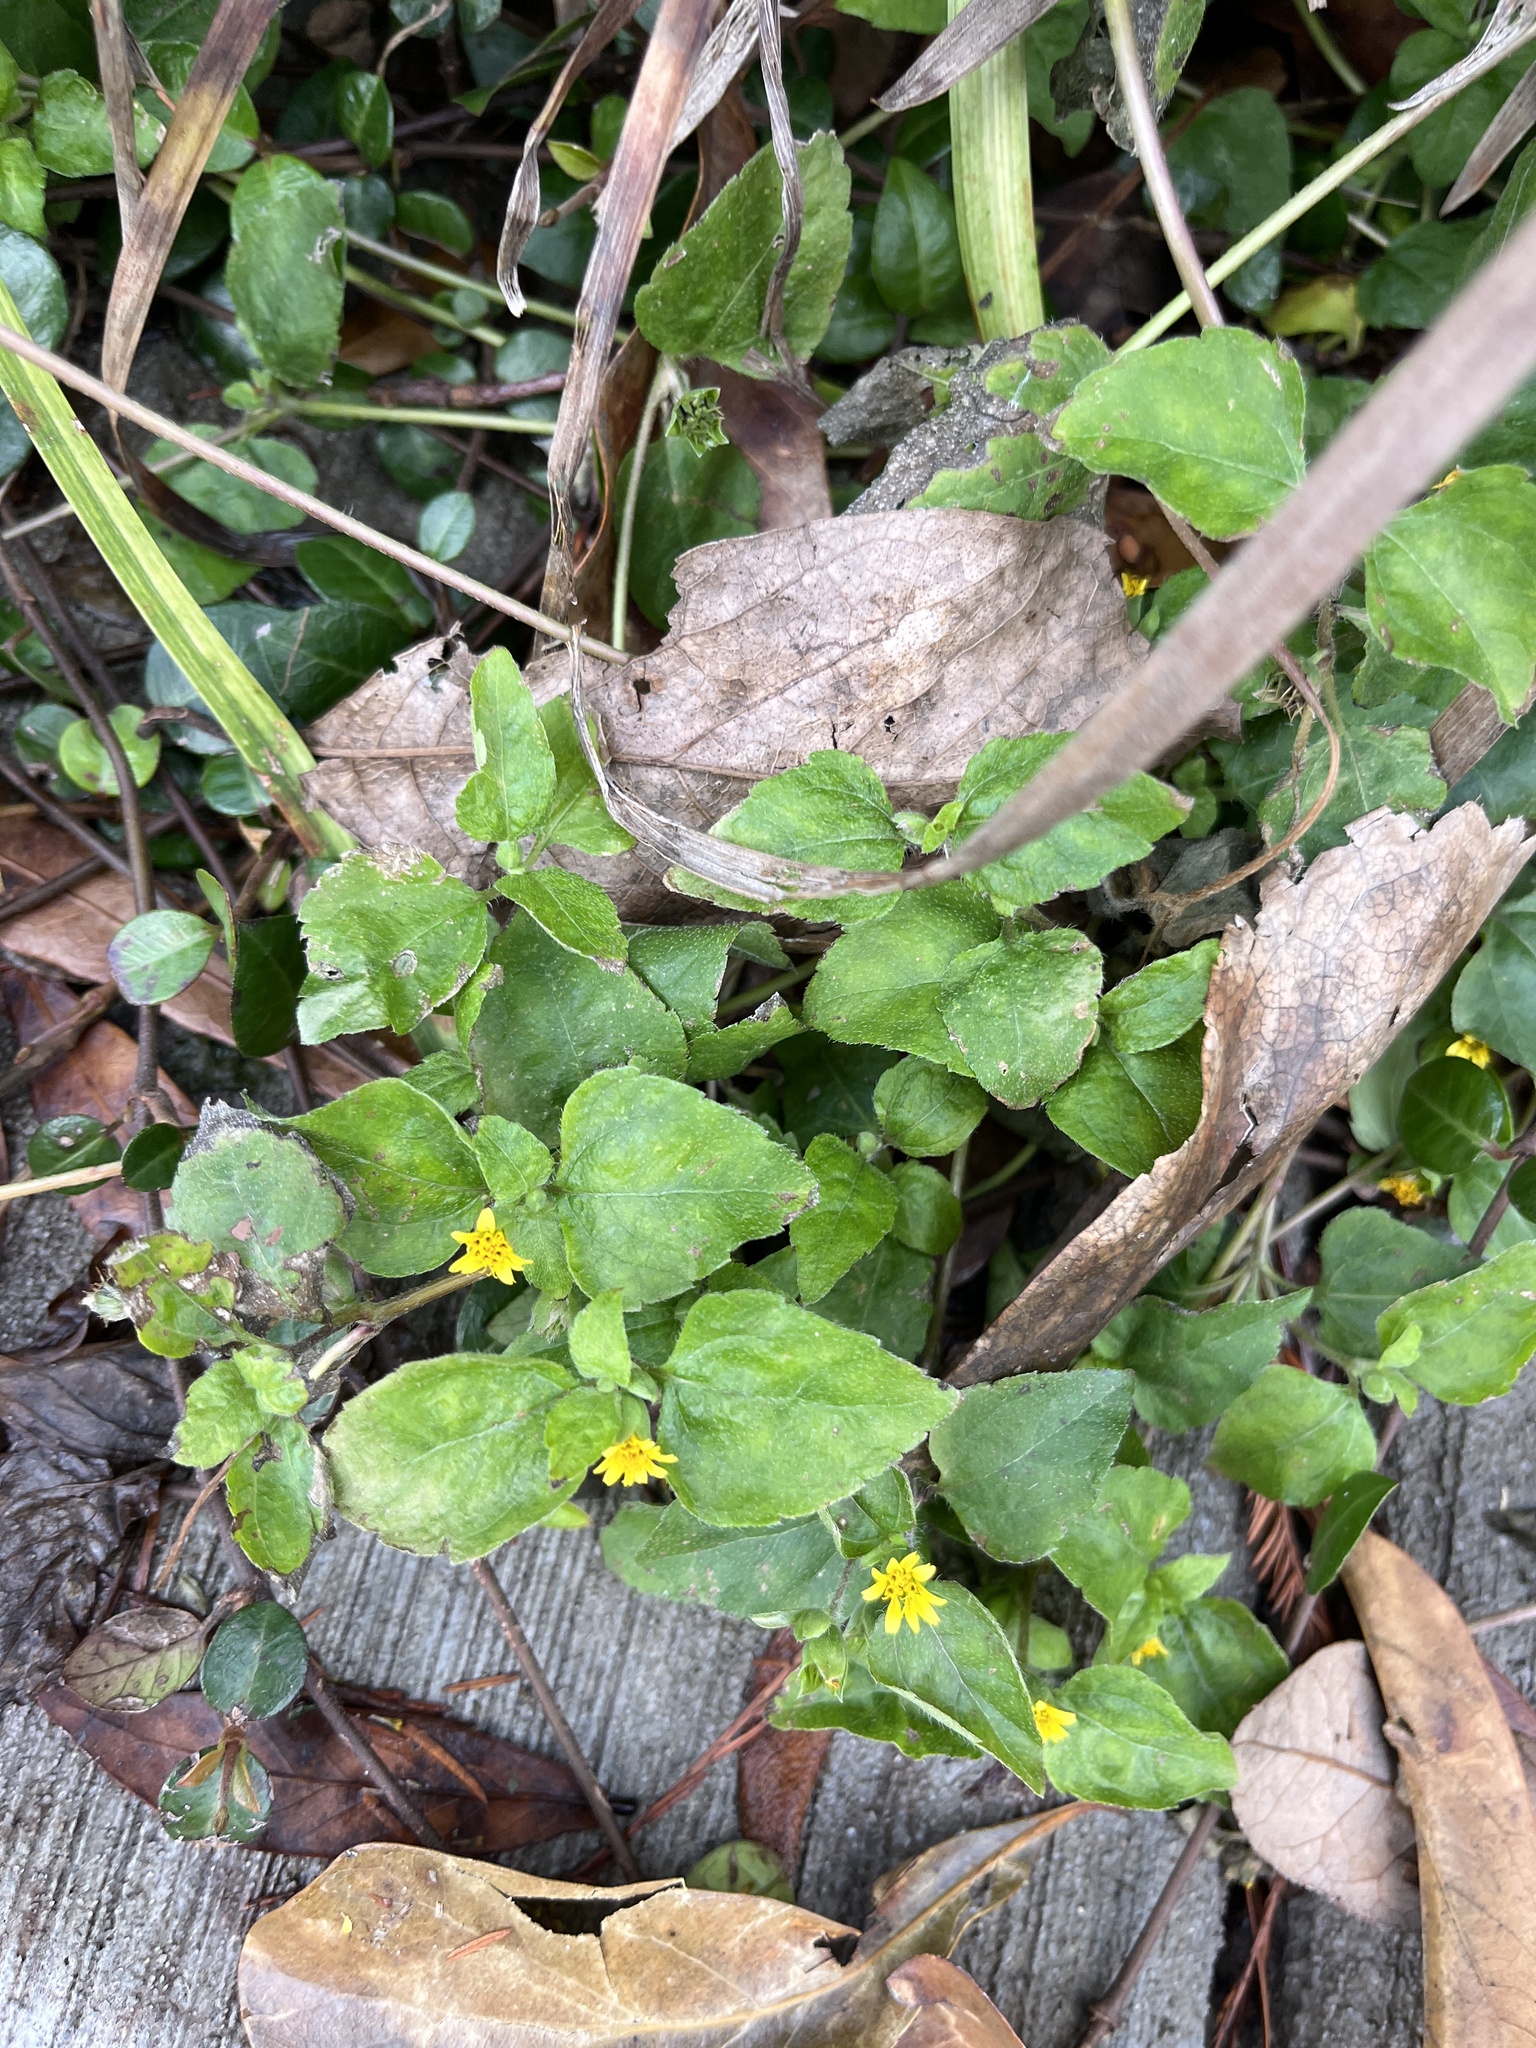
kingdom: Plantae
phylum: Tracheophyta
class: Magnoliopsida
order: Asterales
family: Asteraceae
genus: Calyptocarpus
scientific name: Calyptocarpus vialis
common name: Straggler daisy
